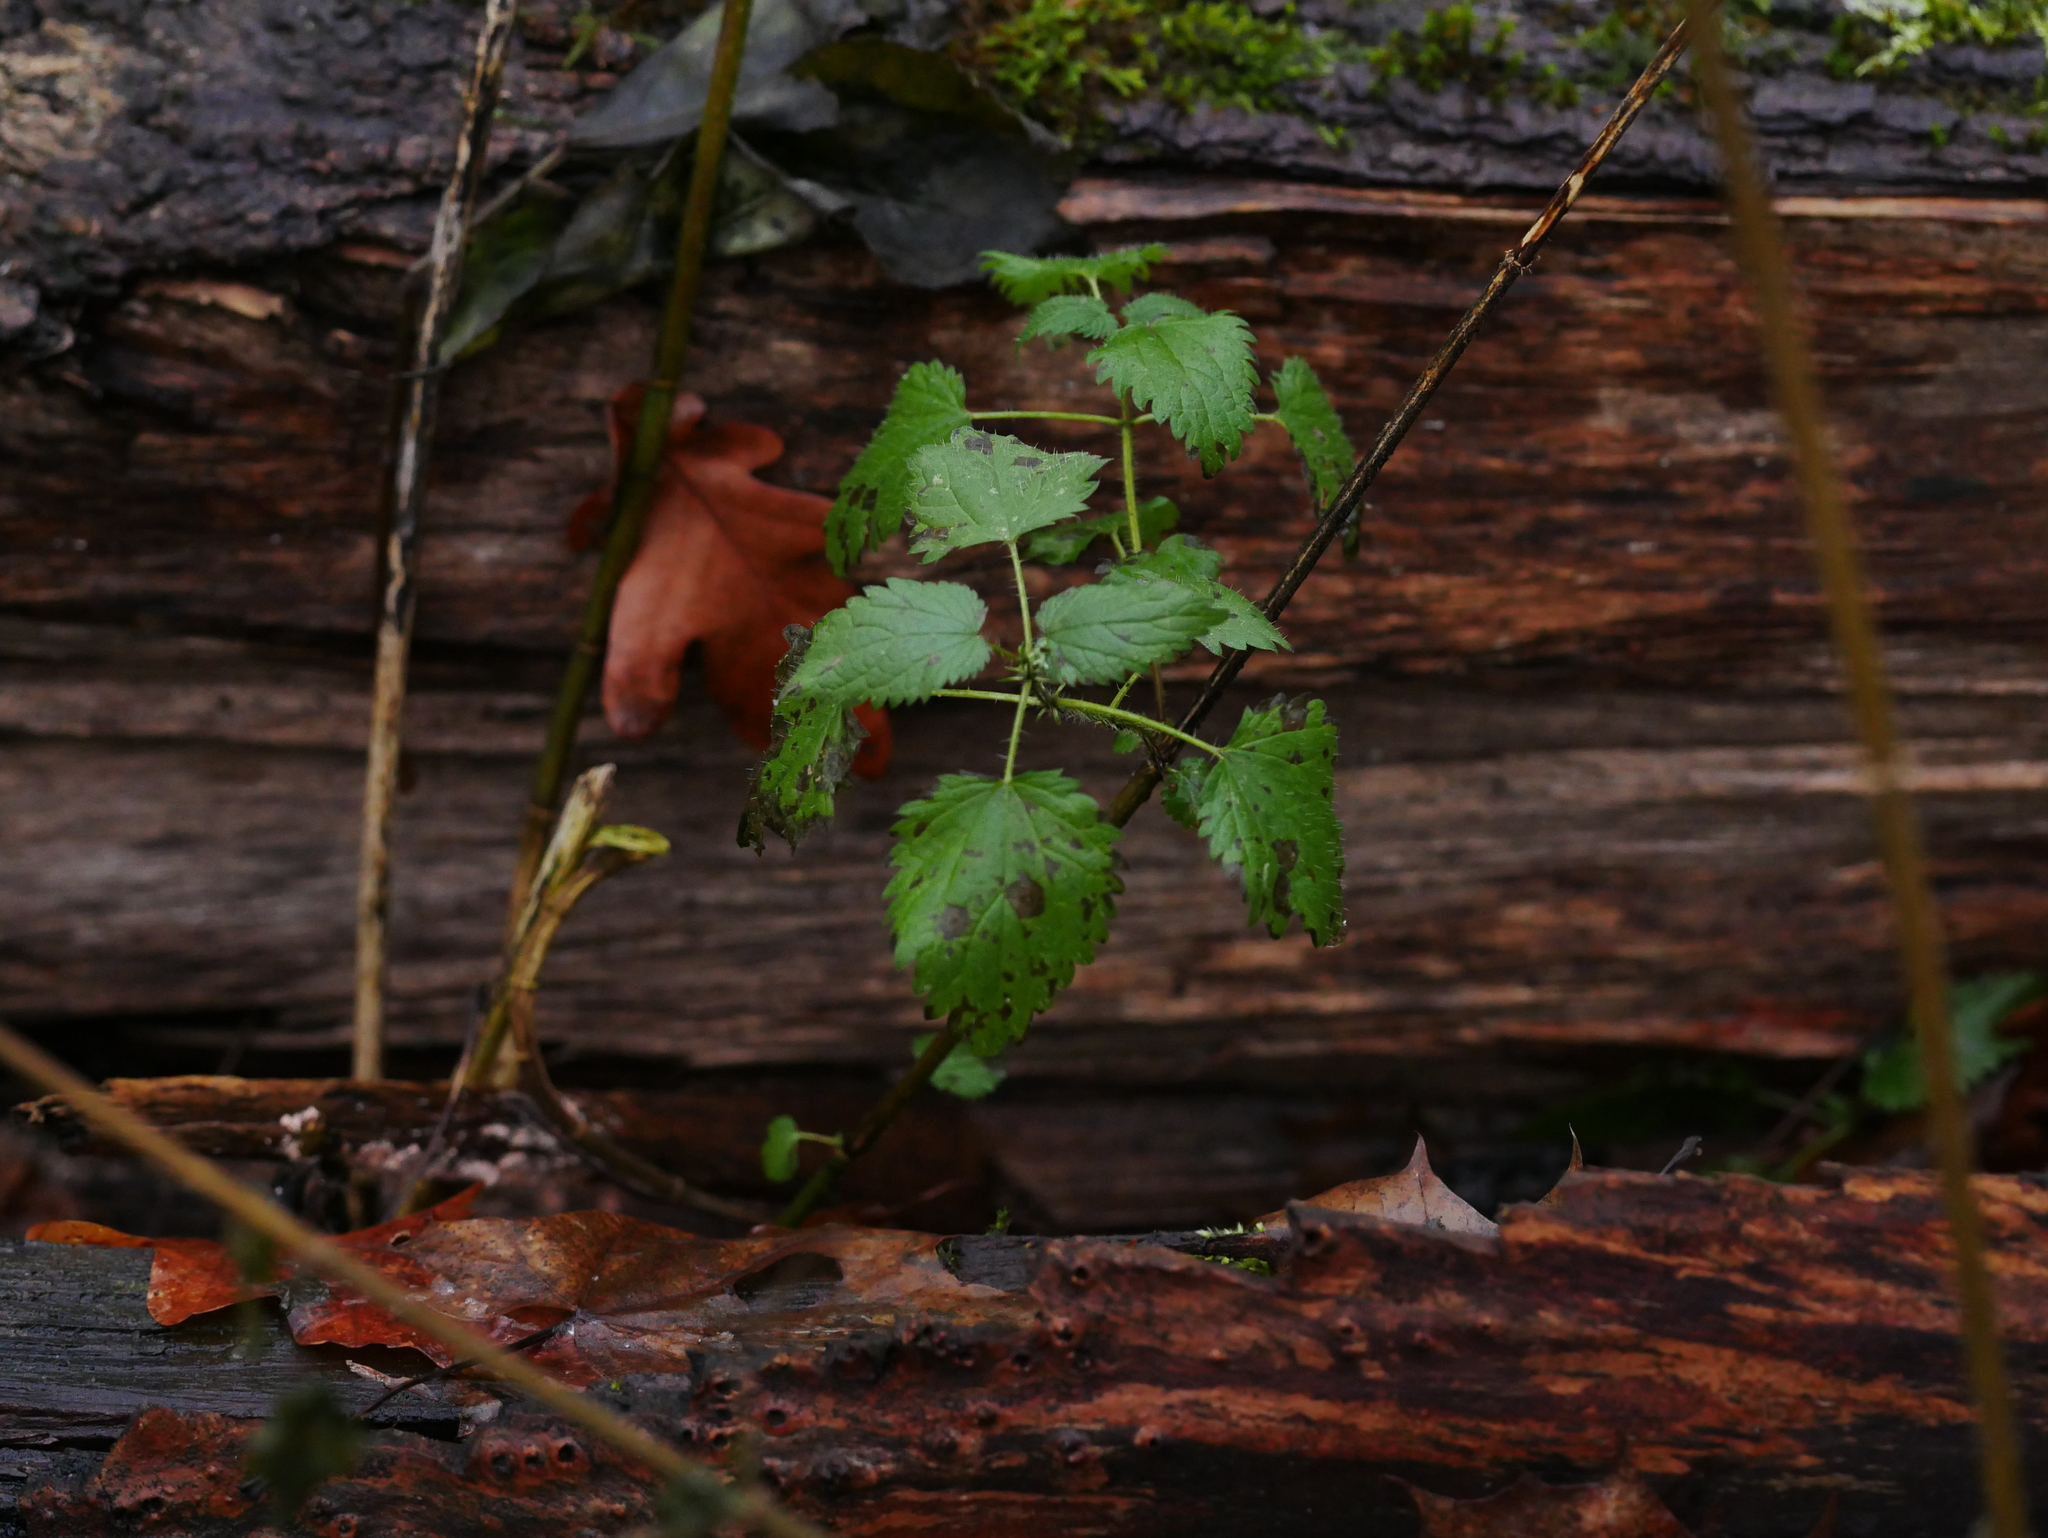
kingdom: Plantae
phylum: Tracheophyta
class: Magnoliopsida
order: Rosales
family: Urticaceae
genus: Urtica
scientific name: Urtica dioica
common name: Common nettle
